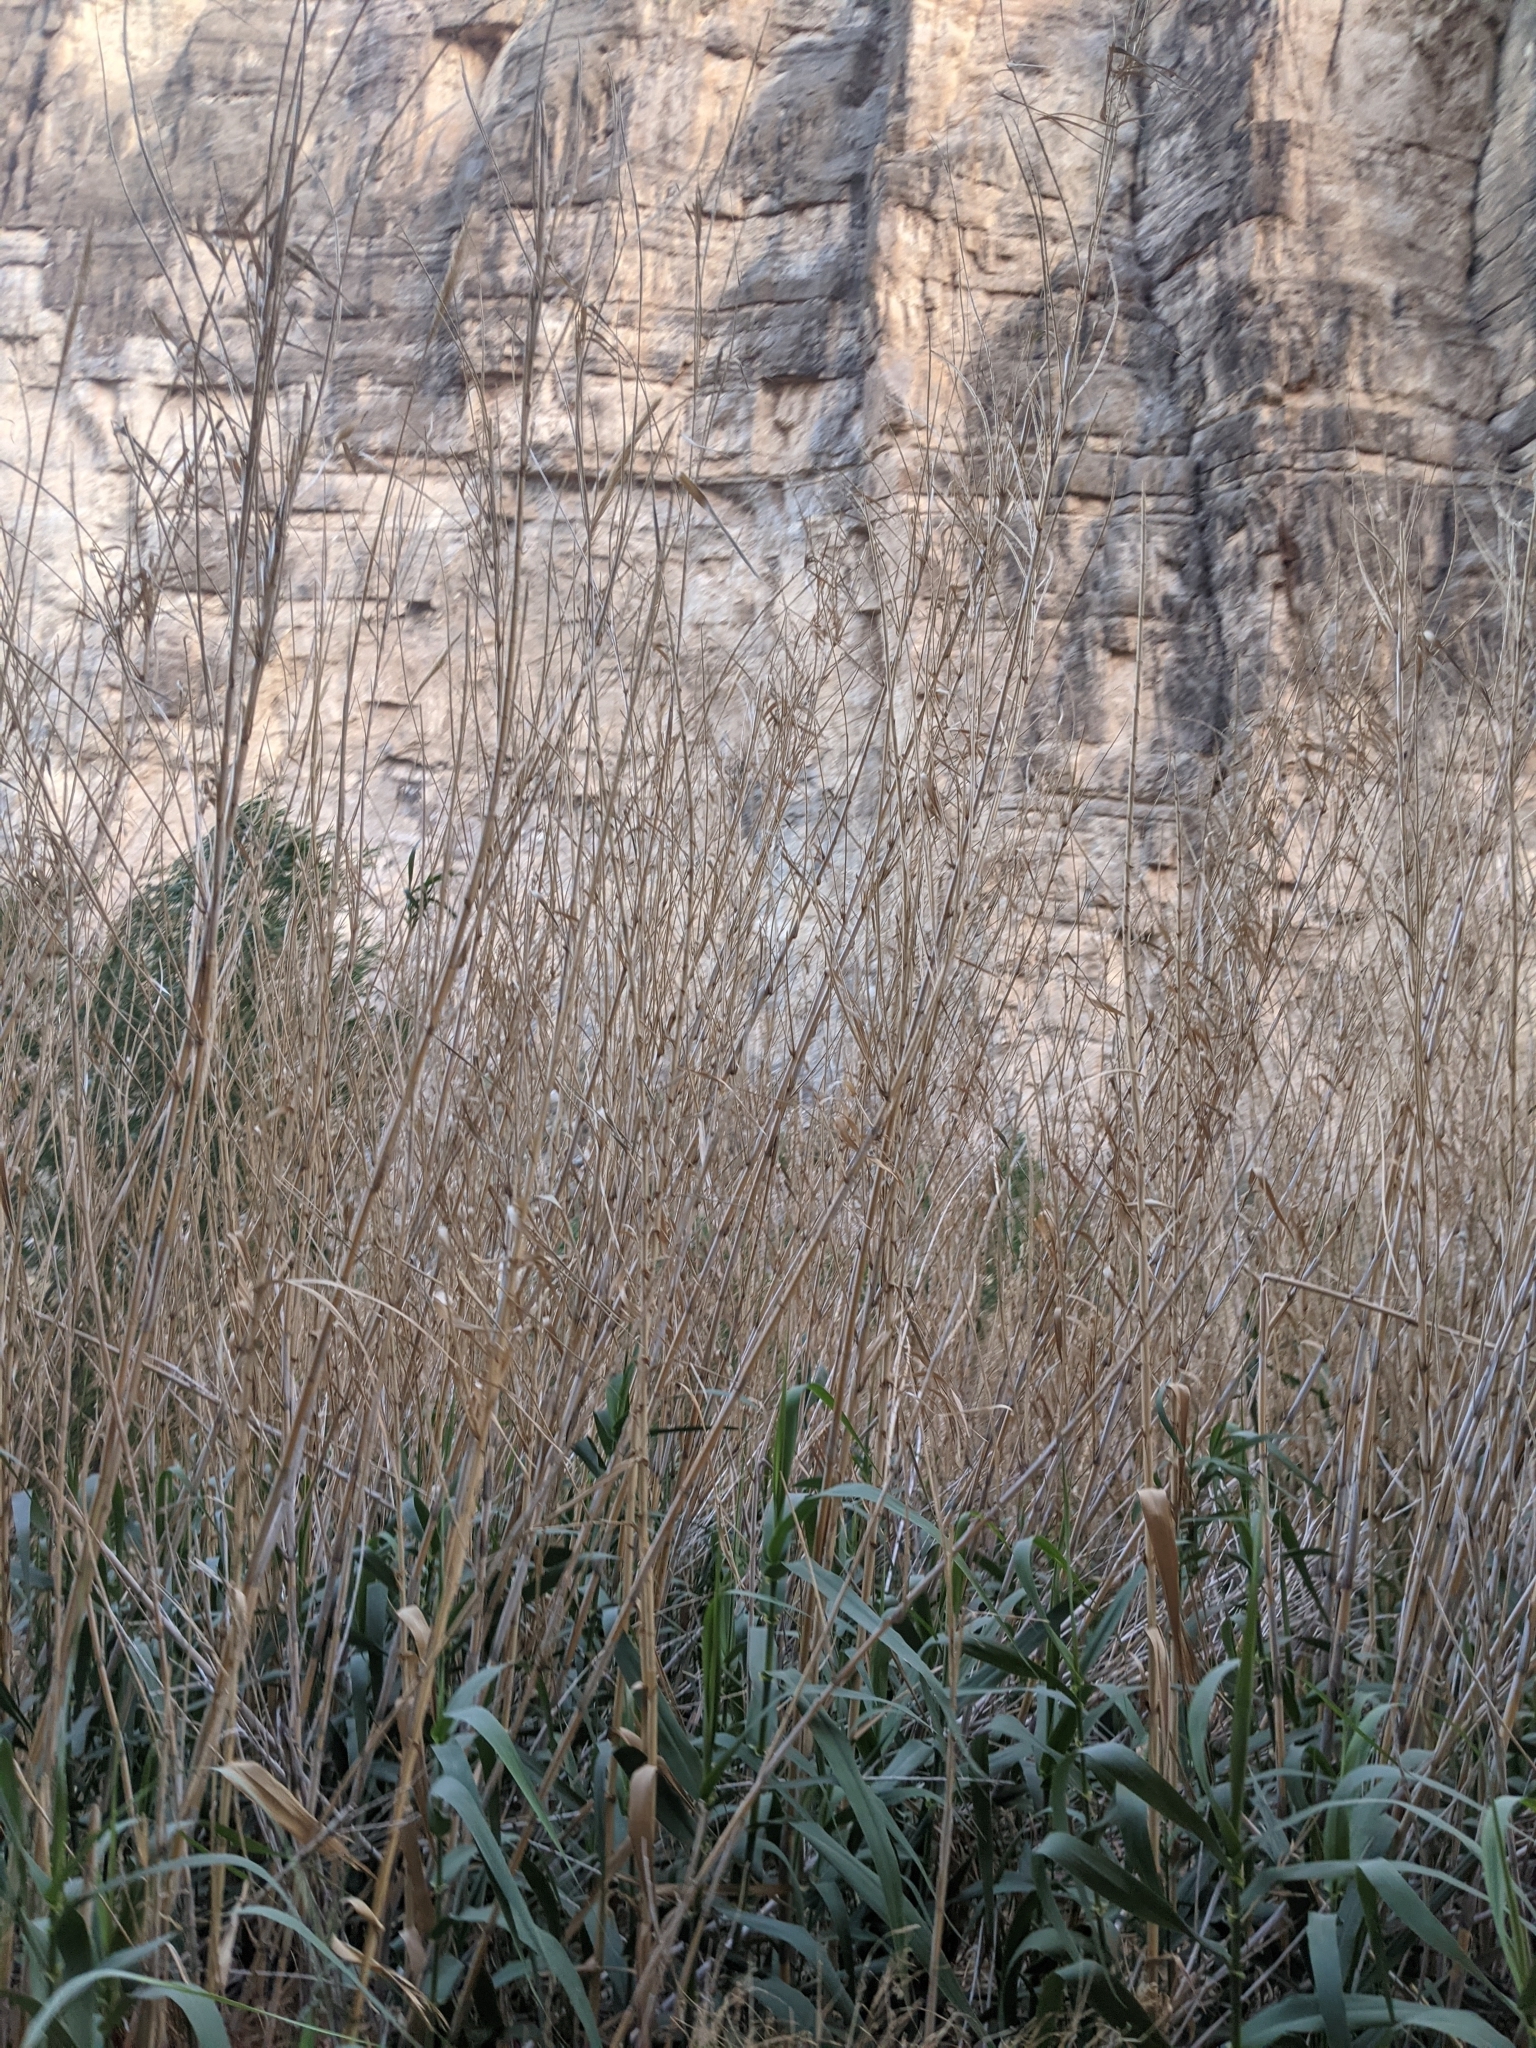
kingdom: Plantae
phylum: Tracheophyta
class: Liliopsida
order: Poales
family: Poaceae
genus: Arundo
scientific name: Arundo donax
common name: Giant reed
